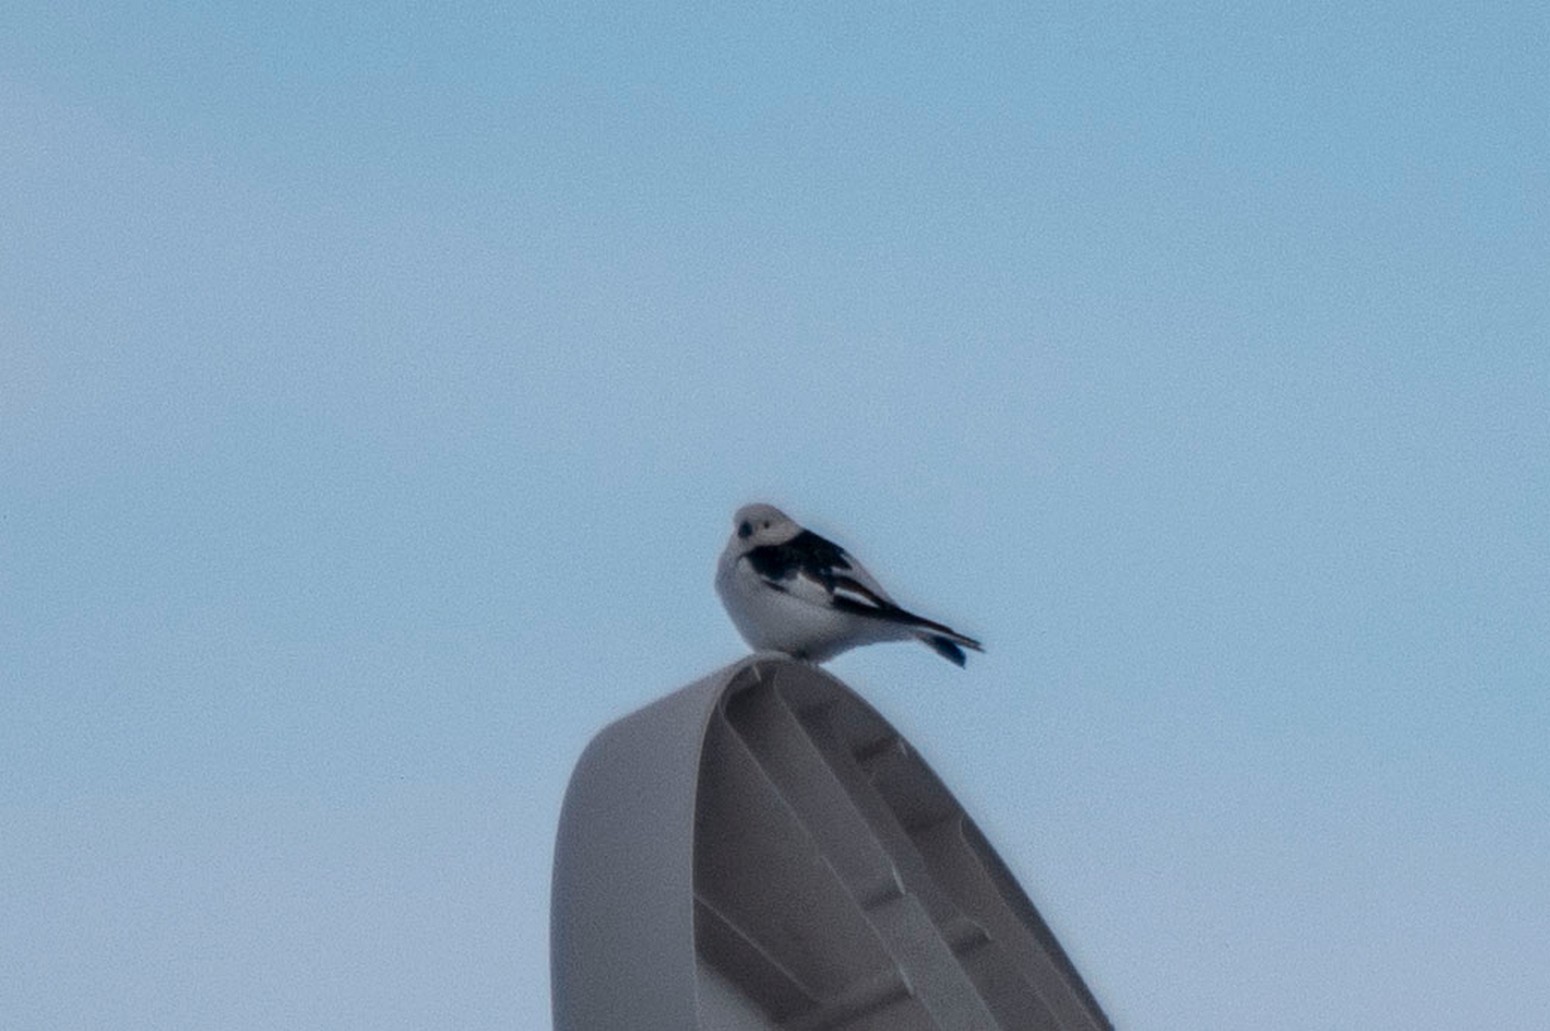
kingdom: Animalia
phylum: Chordata
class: Aves
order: Passeriformes
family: Calcariidae
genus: Plectrophenax
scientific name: Plectrophenax nivalis
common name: Snow bunting
